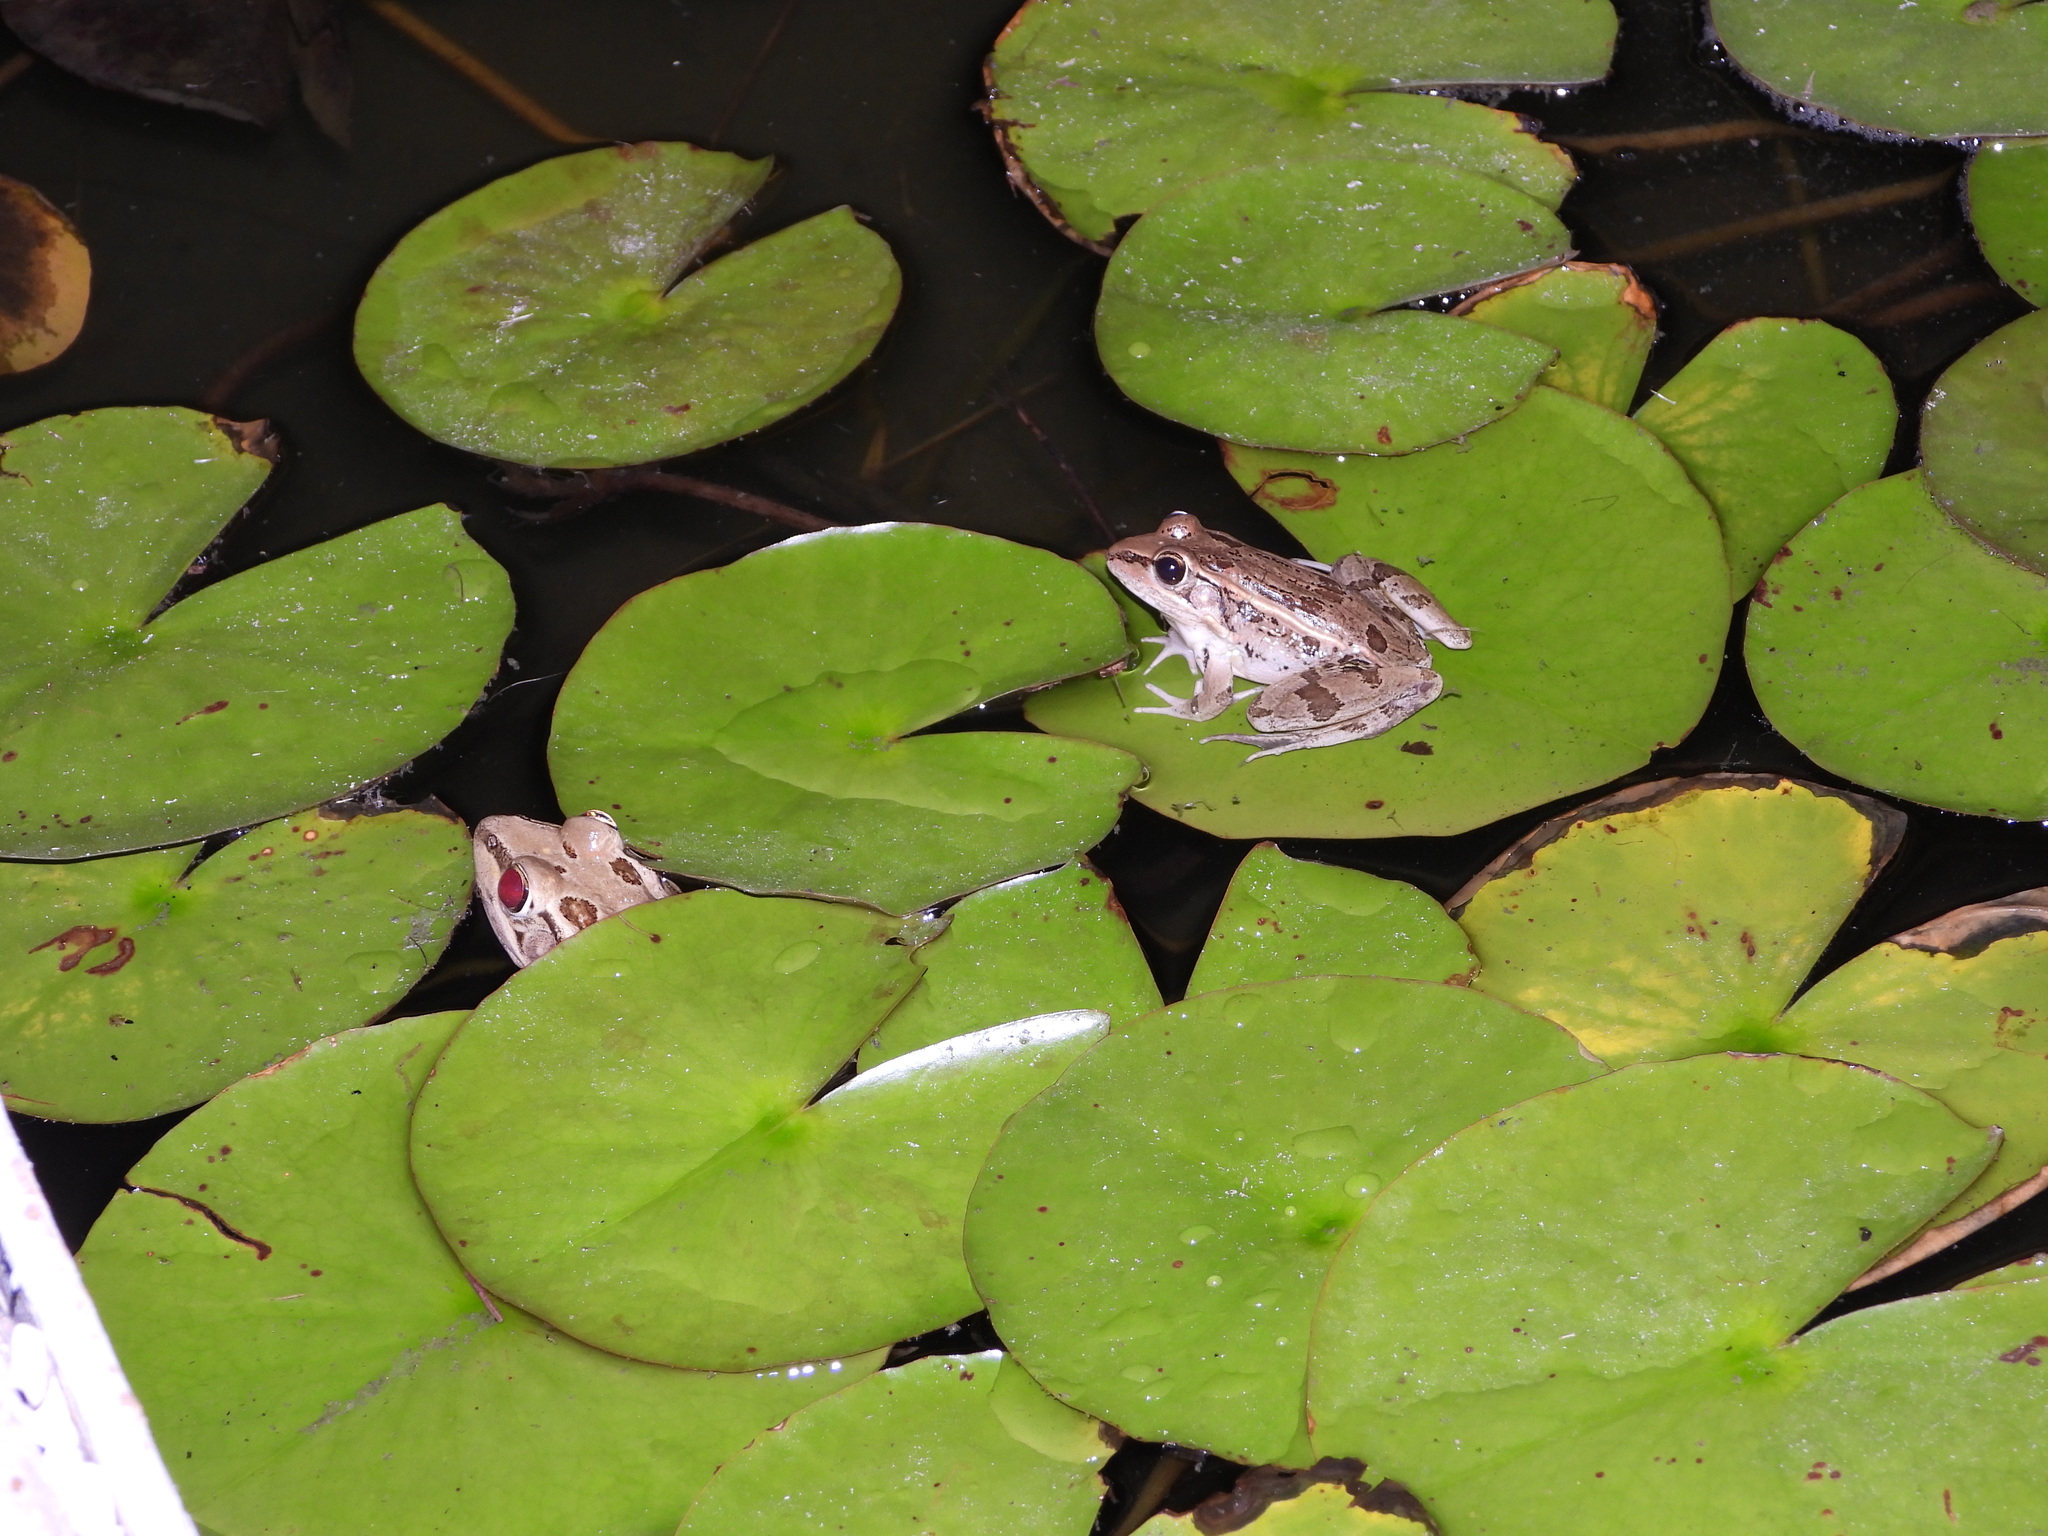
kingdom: Animalia
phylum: Chordata
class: Amphibia
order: Anura
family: Ranidae
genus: Lithobates
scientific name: Lithobates berlandieri
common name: Rio grande leopard frog
